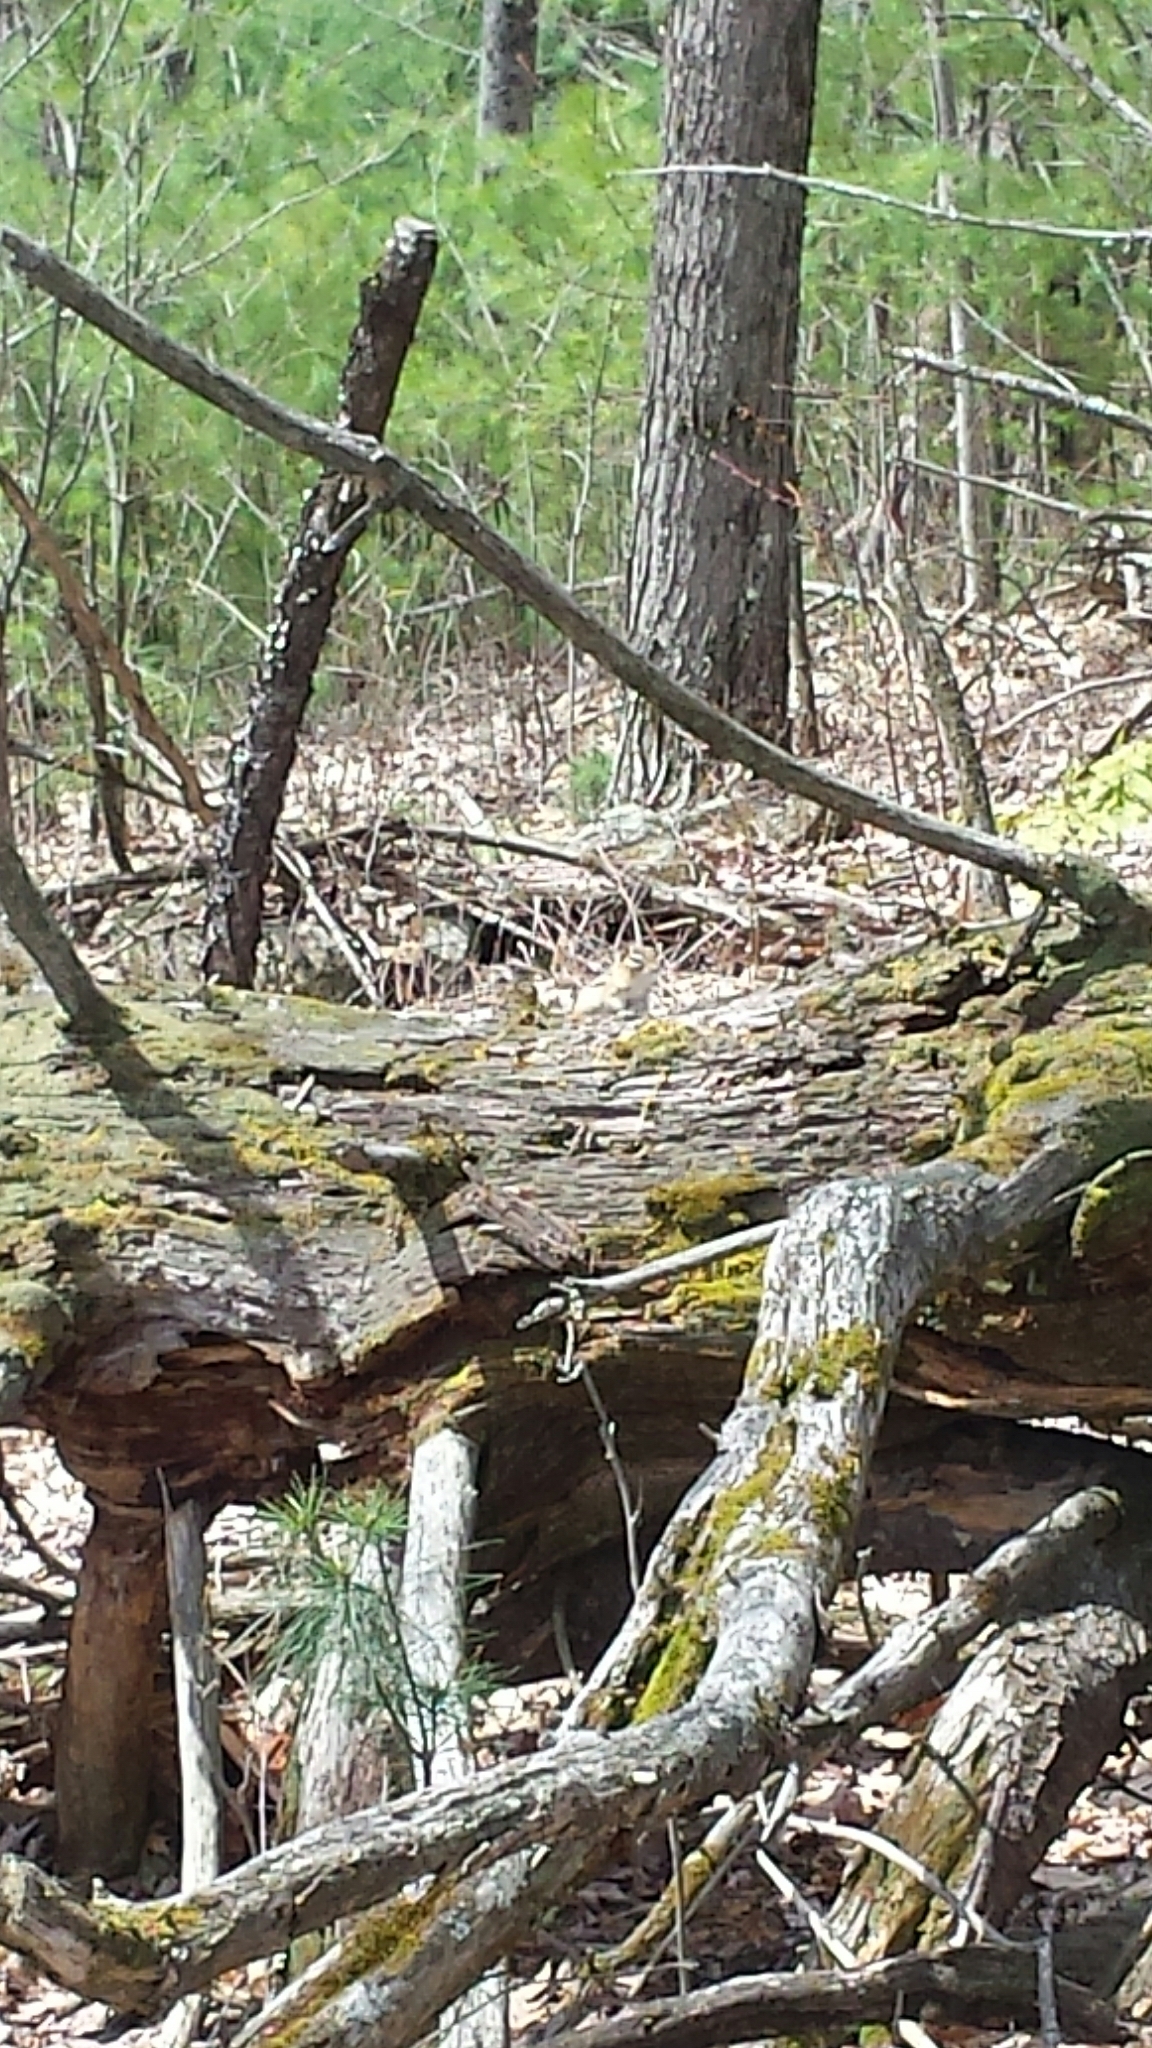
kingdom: Animalia
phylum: Chordata
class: Mammalia
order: Rodentia
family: Sciuridae
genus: Tamias
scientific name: Tamias striatus
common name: Eastern chipmunk
